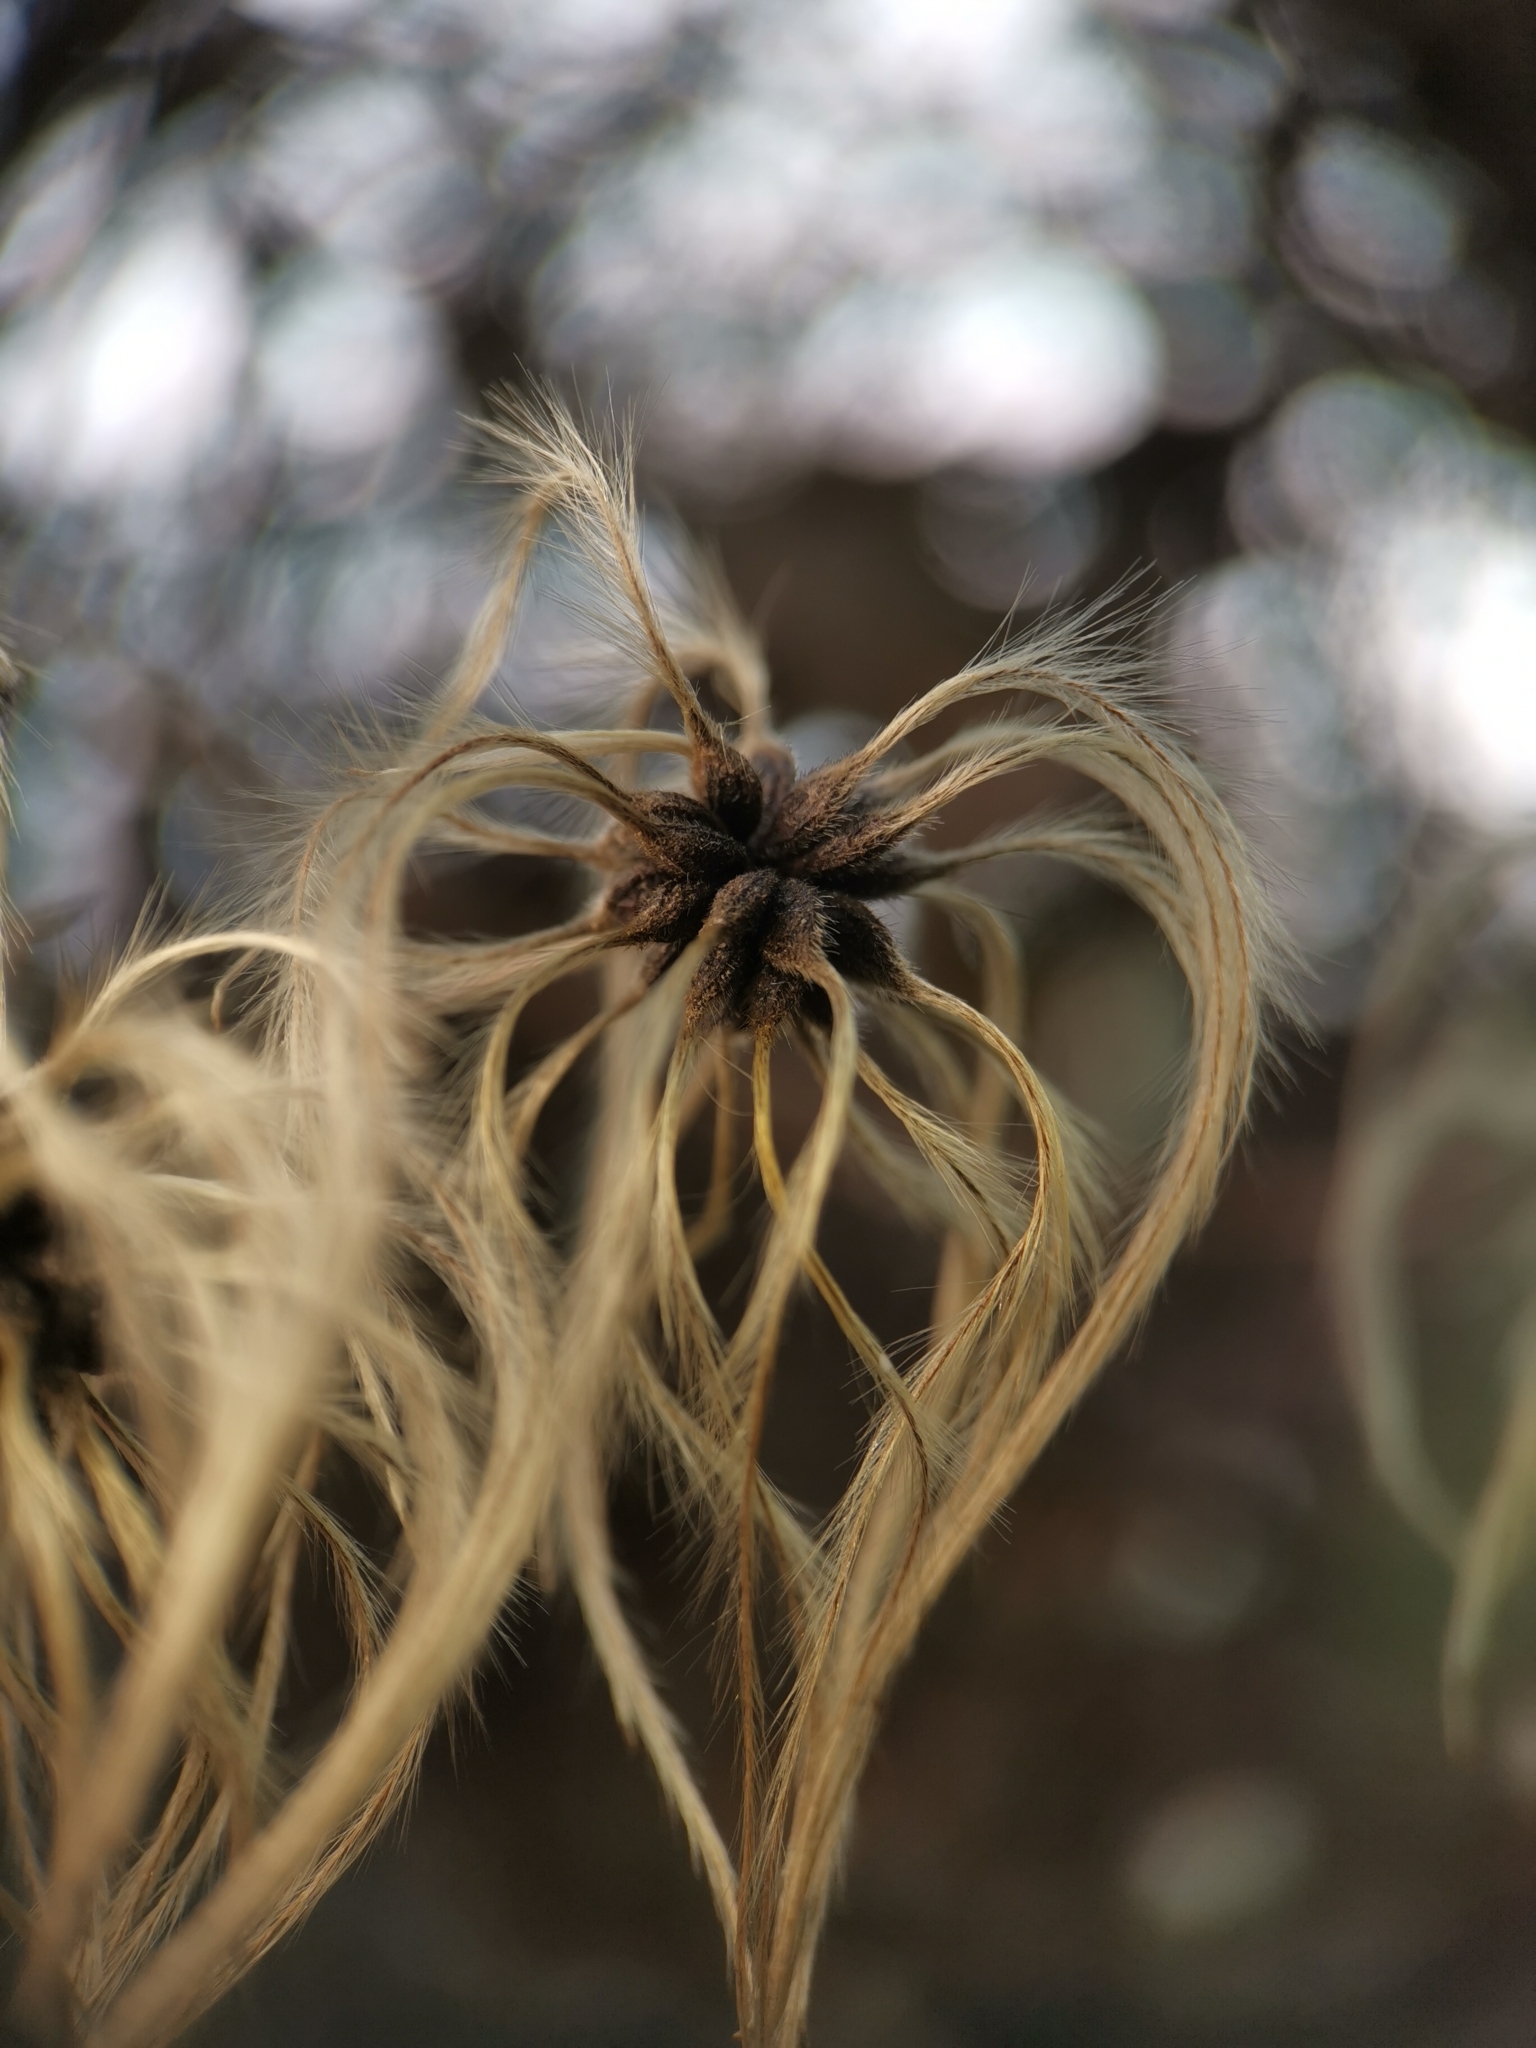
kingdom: Plantae
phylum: Tracheophyta
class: Magnoliopsida
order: Ranunculales
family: Ranunculaceae
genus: Clematis
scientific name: Clematis vitalba
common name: Evergreen clematis
